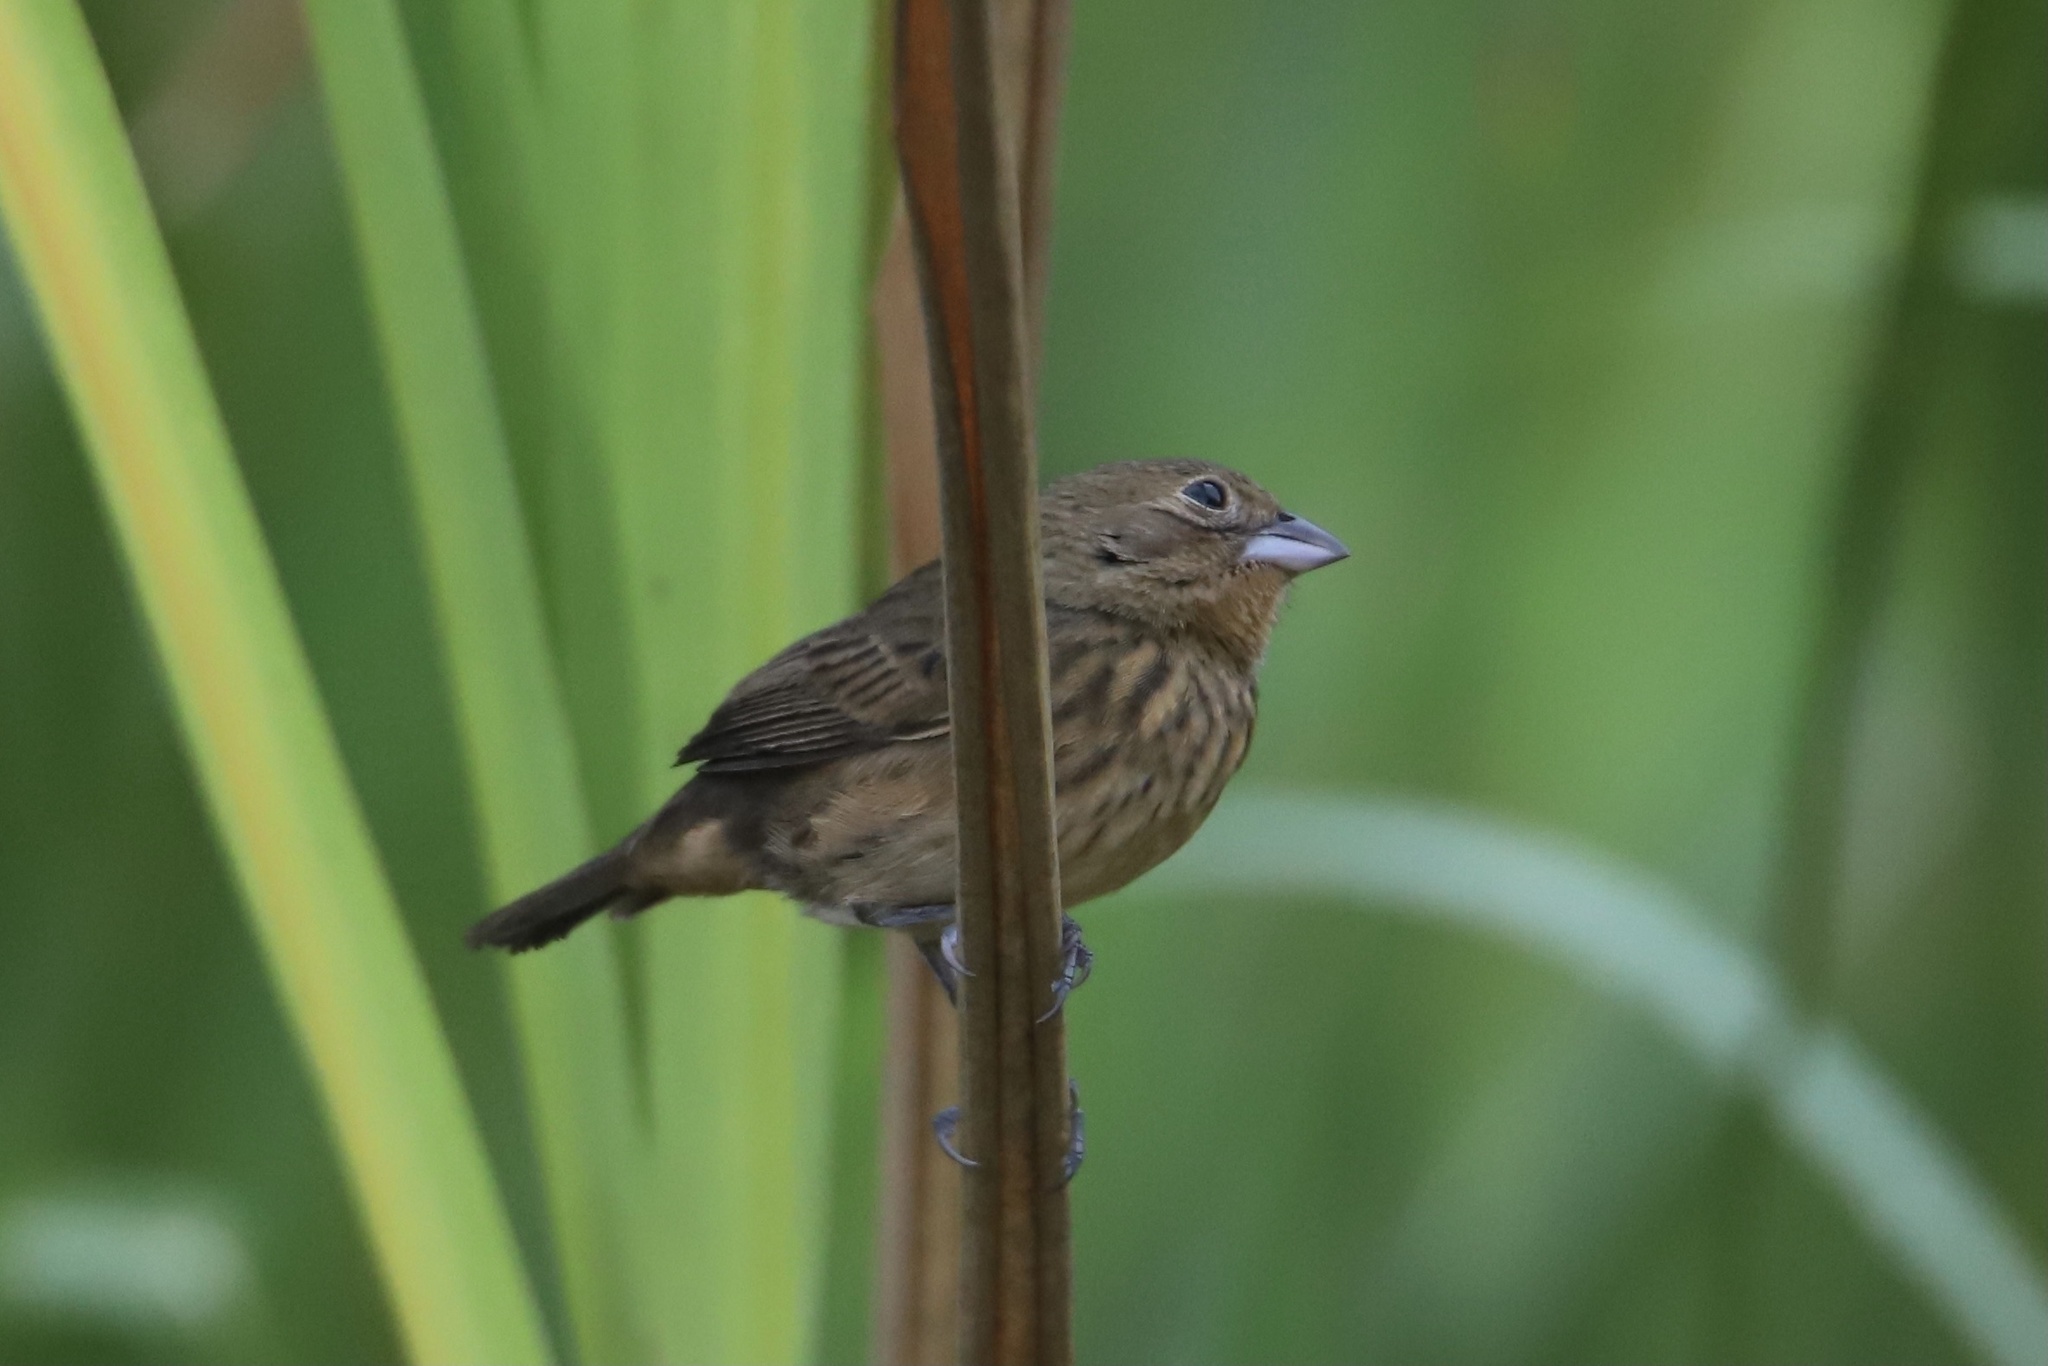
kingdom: Animalia
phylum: Chordata
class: Aves
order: Passeriformes
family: Thraupidae
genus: Volatinia
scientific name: Volatinia jacarina
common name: Blue-black grassquit
